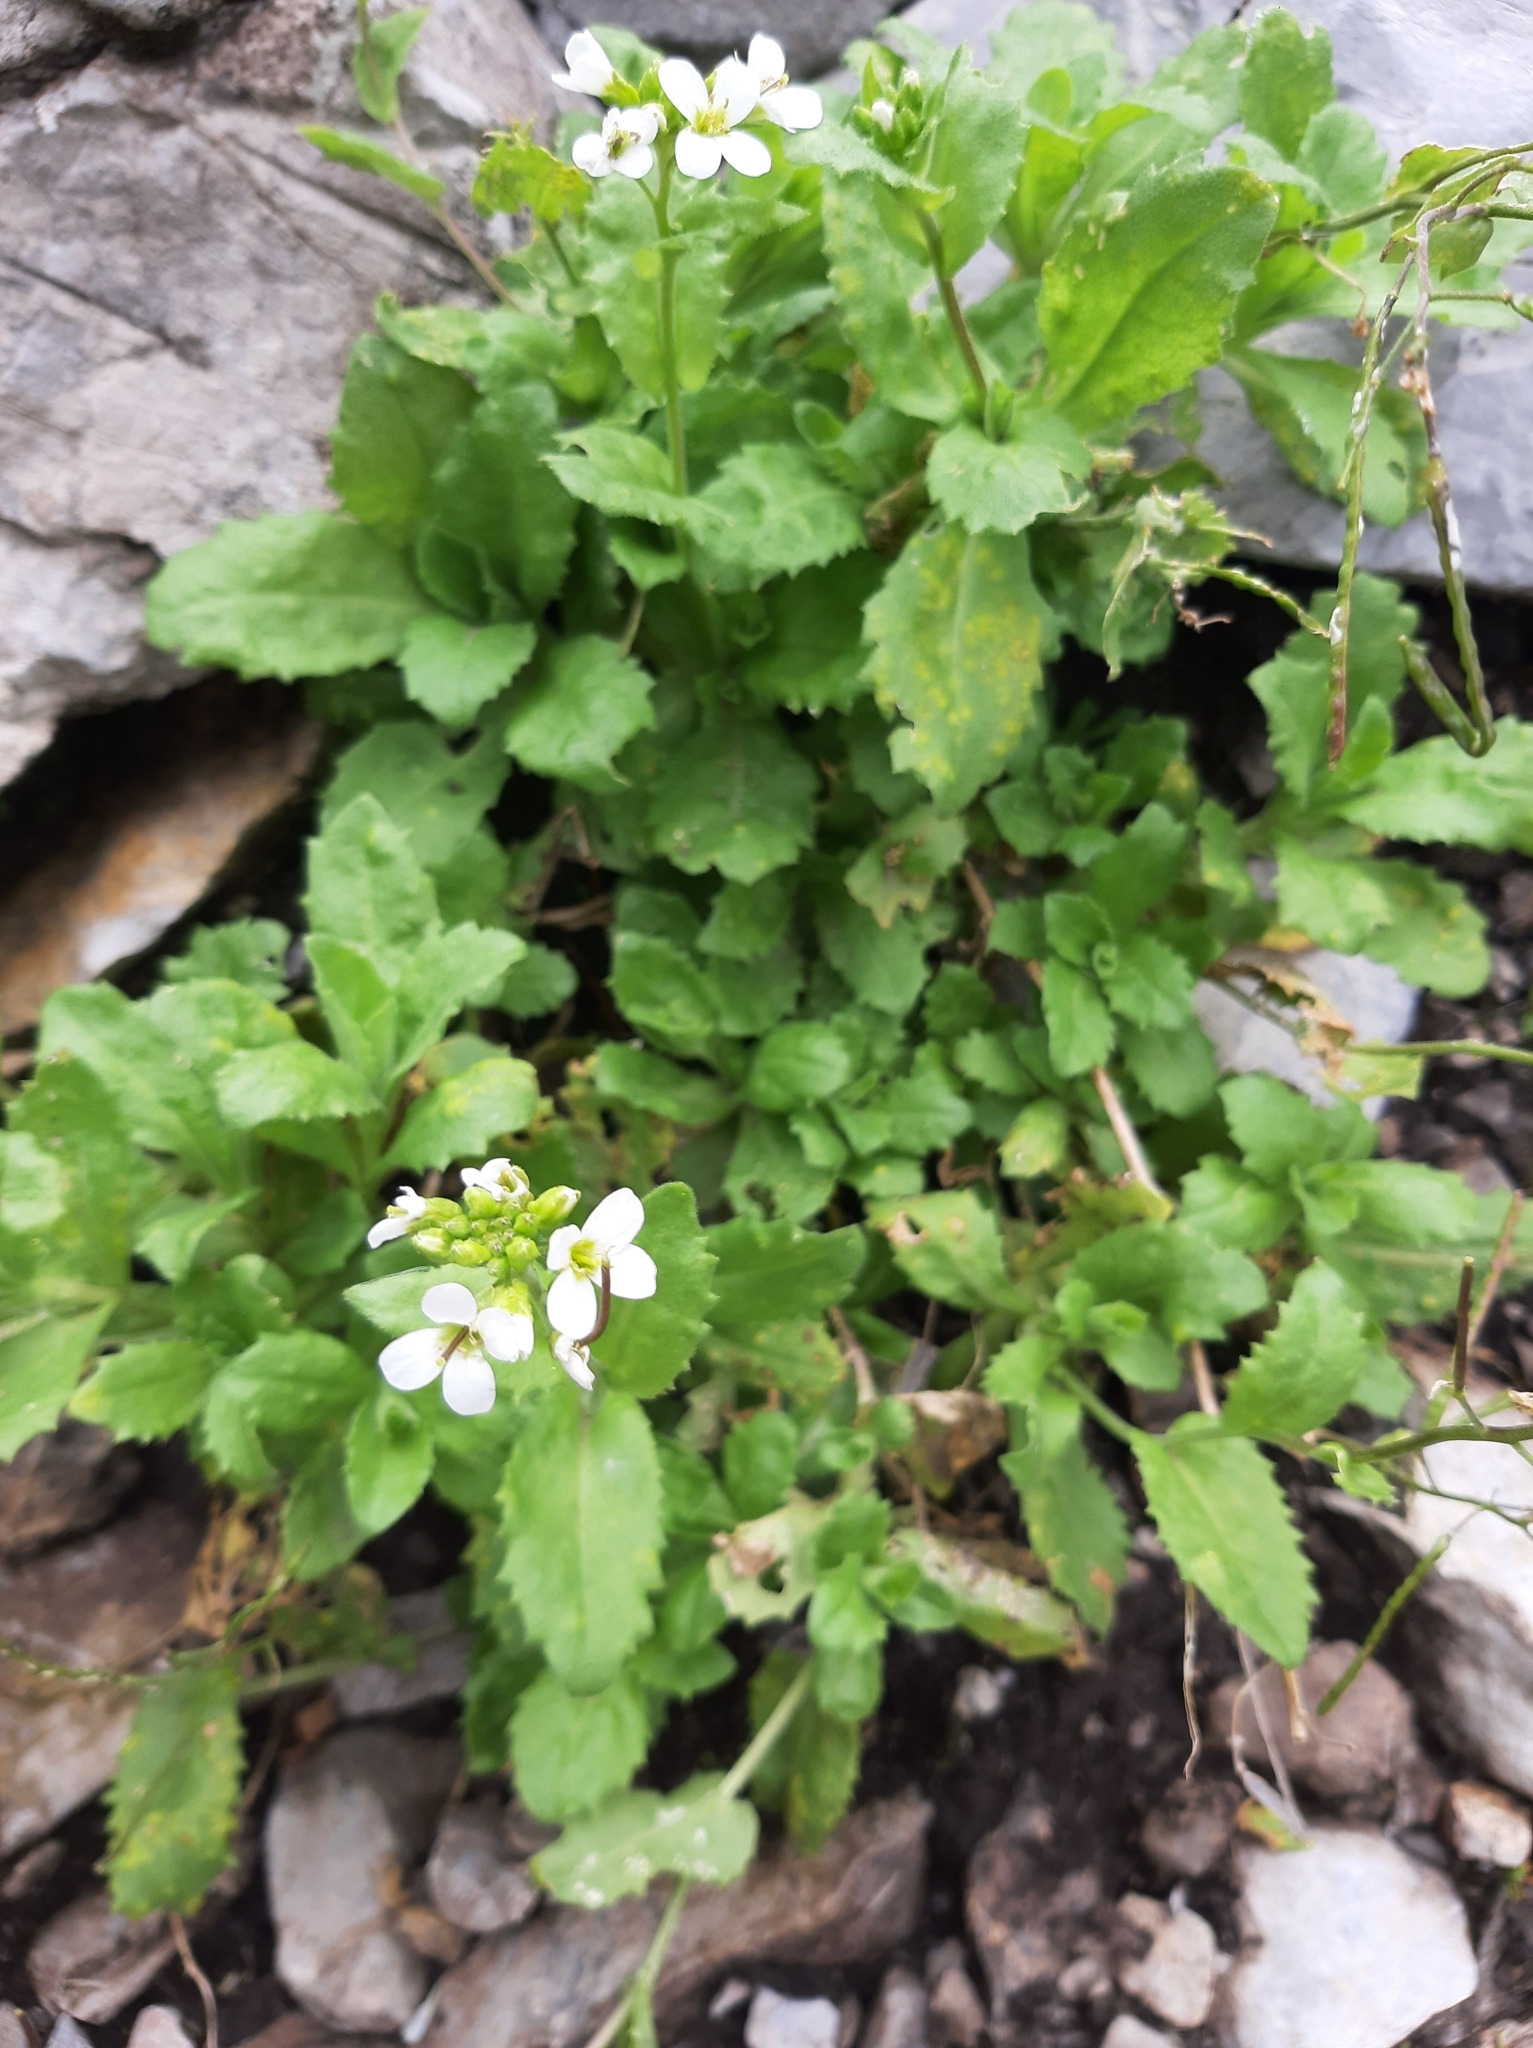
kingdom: Plantae
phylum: Tracheophyta
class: Magnoliopsida
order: Brassicales
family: Brassicaceae
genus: Arabis
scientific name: Arabis alpina
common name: Alpine rock-cress
